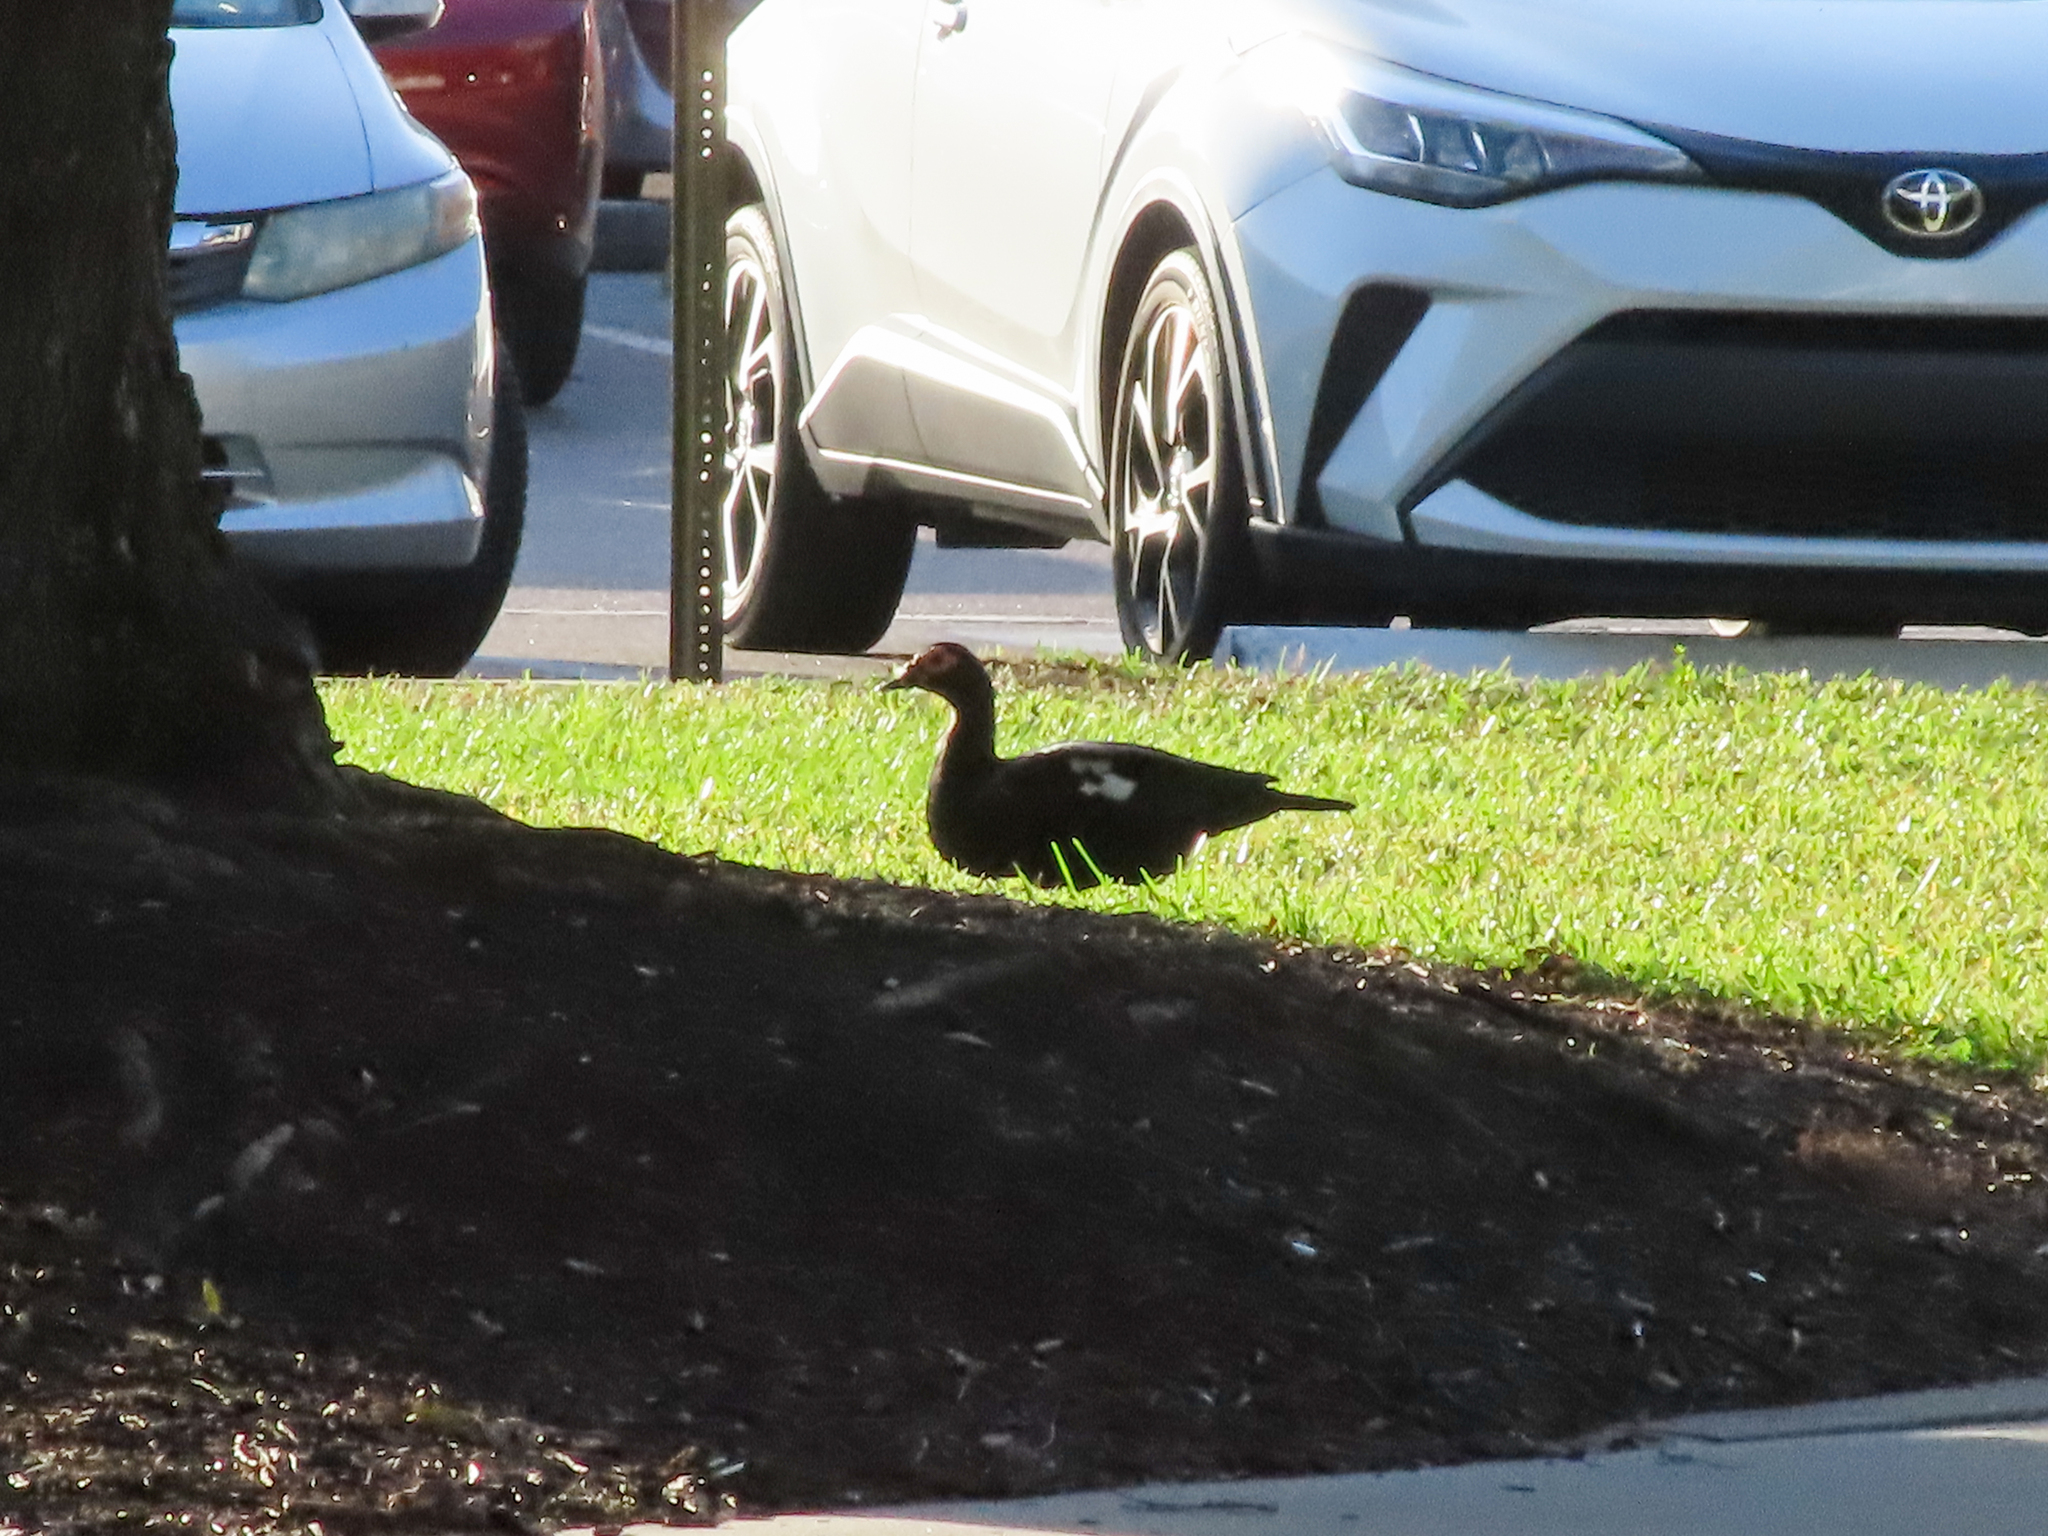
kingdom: Animalia
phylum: Chordata
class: Aves
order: Anseriformes
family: Anatidae
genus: Cairina
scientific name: Cairina moschata
